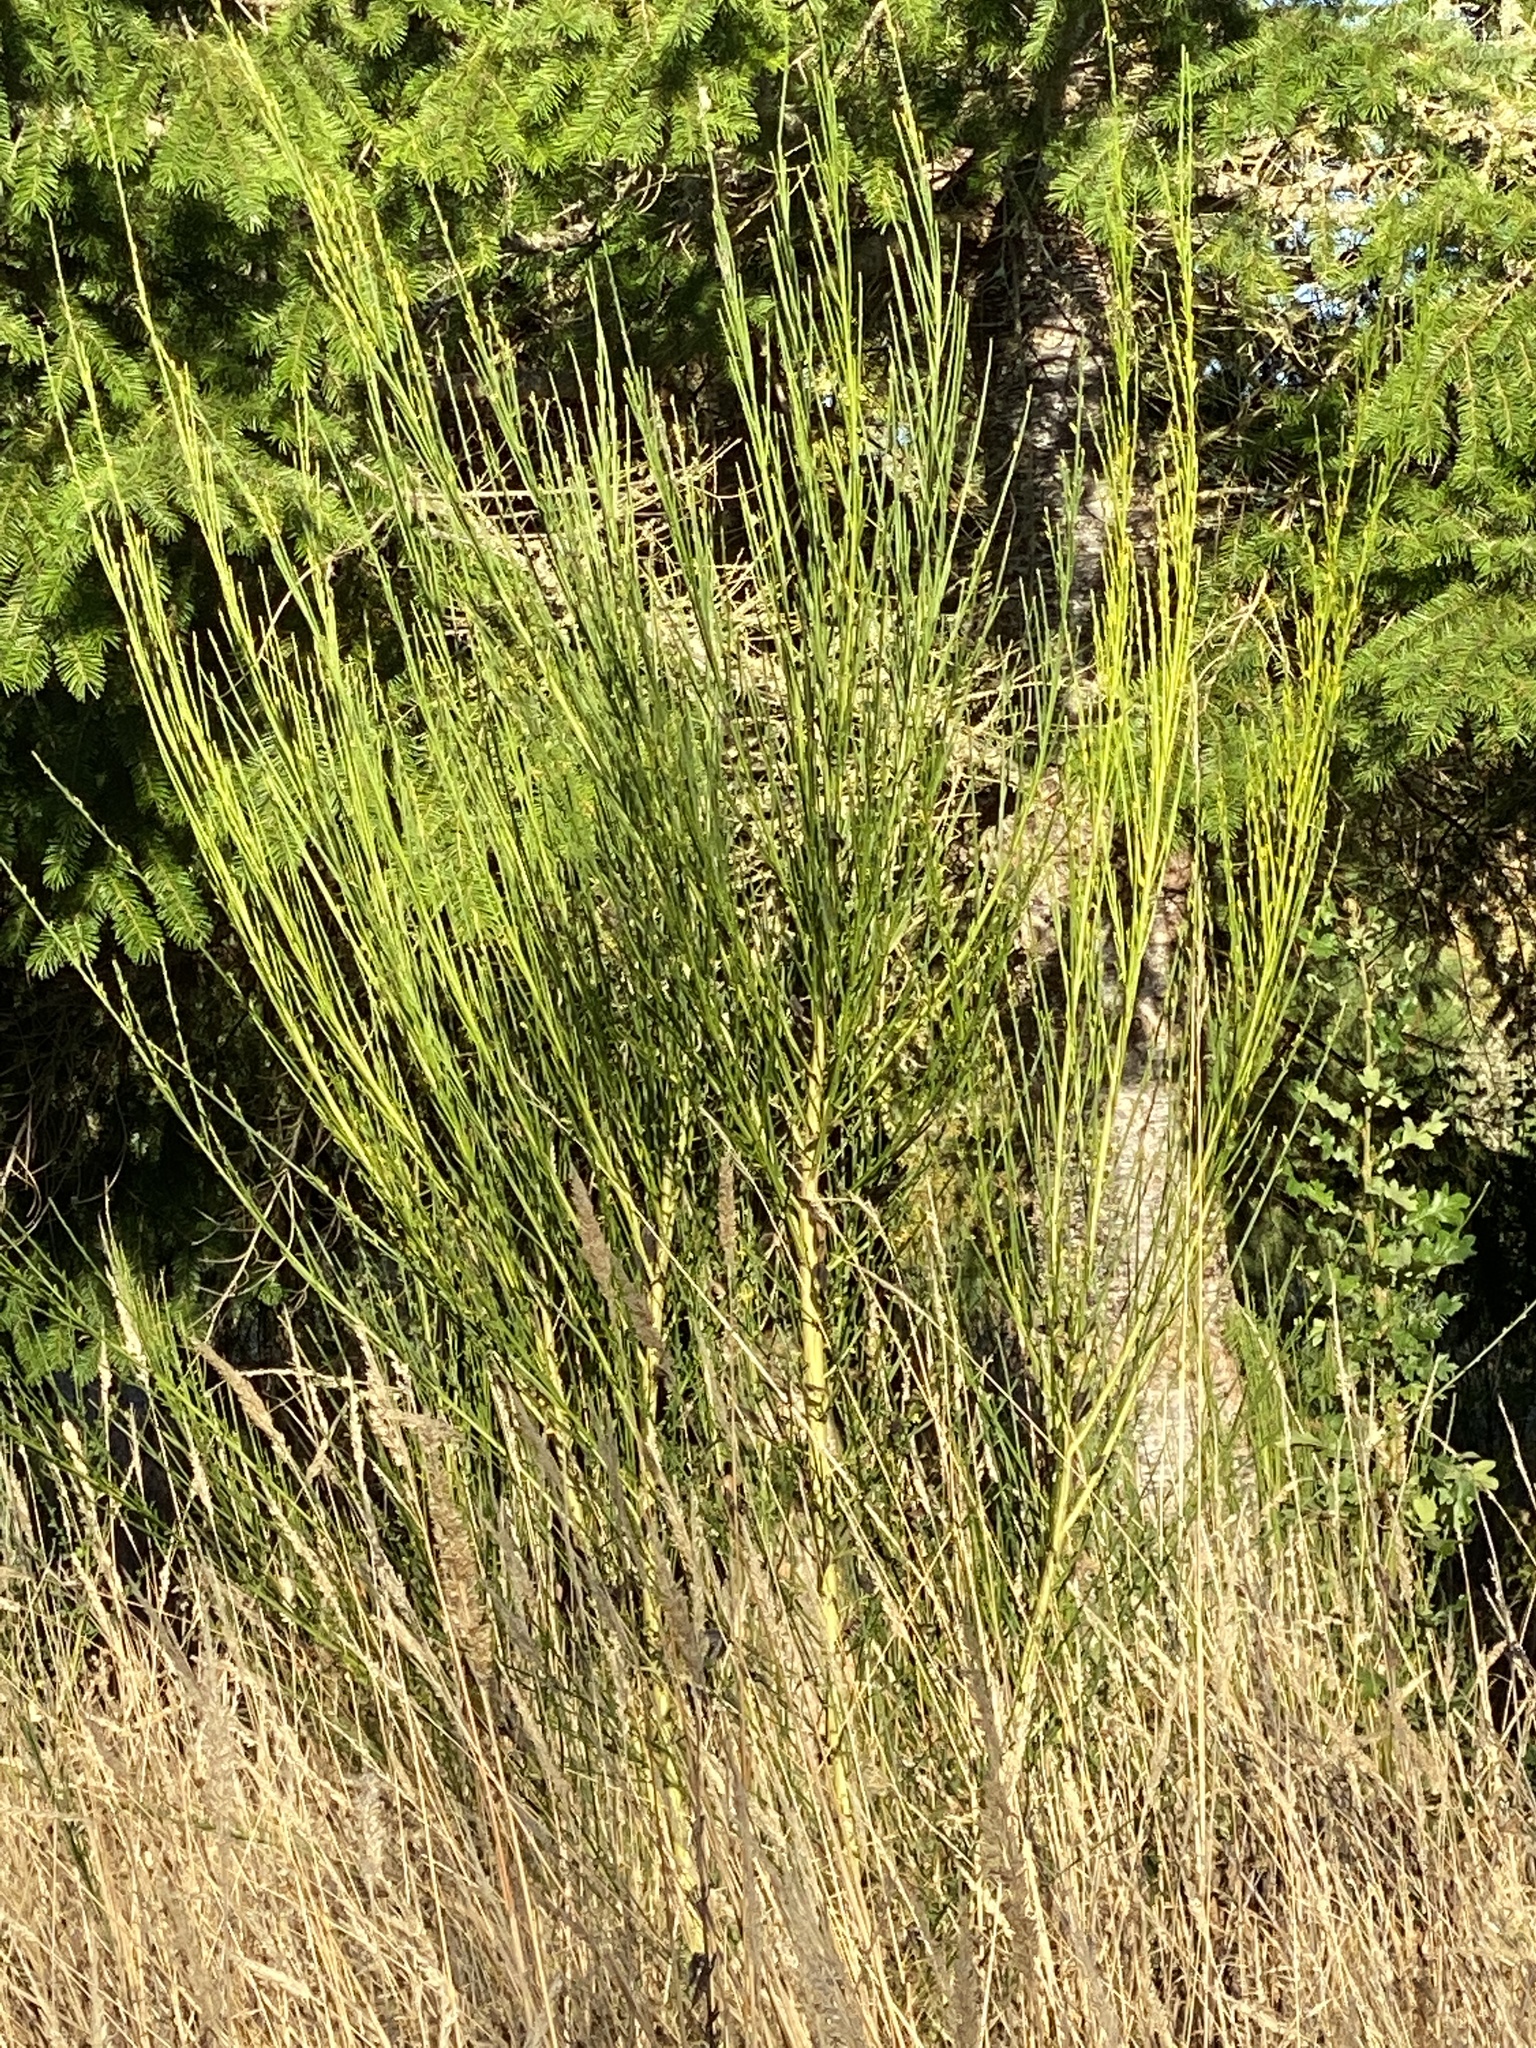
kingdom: Plantae
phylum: Tracheophyta
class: Magnoliopsida
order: Fabales
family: Fabaceae
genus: Cytisus
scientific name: Cytisus scoparius
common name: Scotch broom
